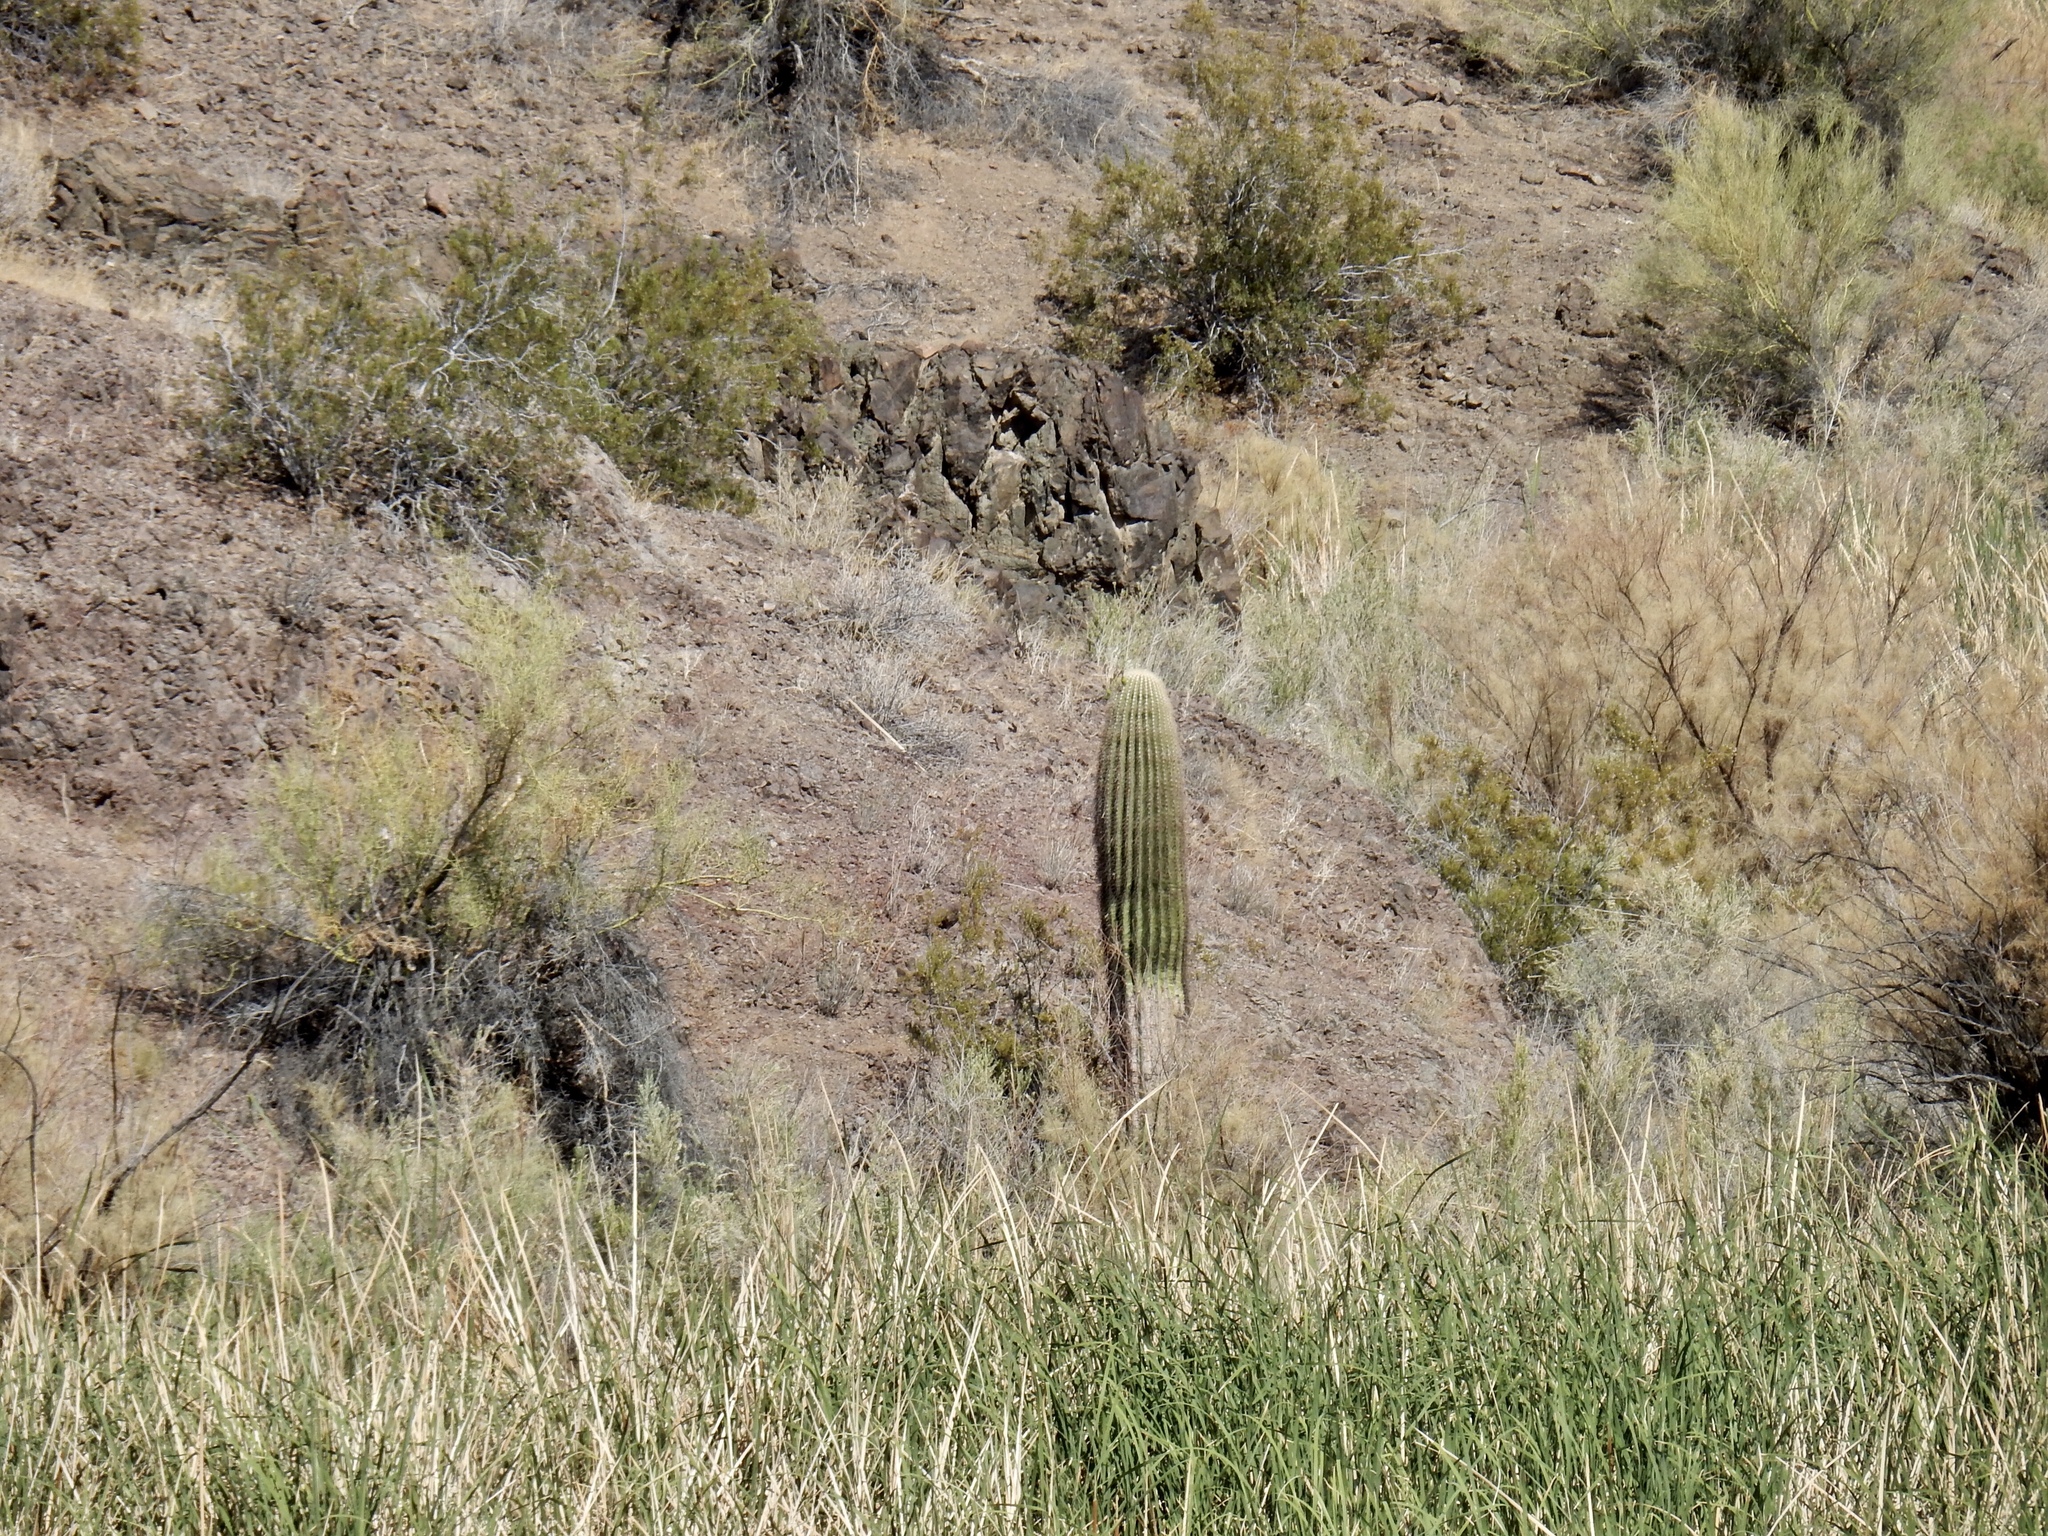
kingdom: Plantae
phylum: Tracheophyta
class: Magnoliopsida
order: Caryophyllales
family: Cactaceae
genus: Carnegiea
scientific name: Carnegiea gigantea
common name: Saguaro
